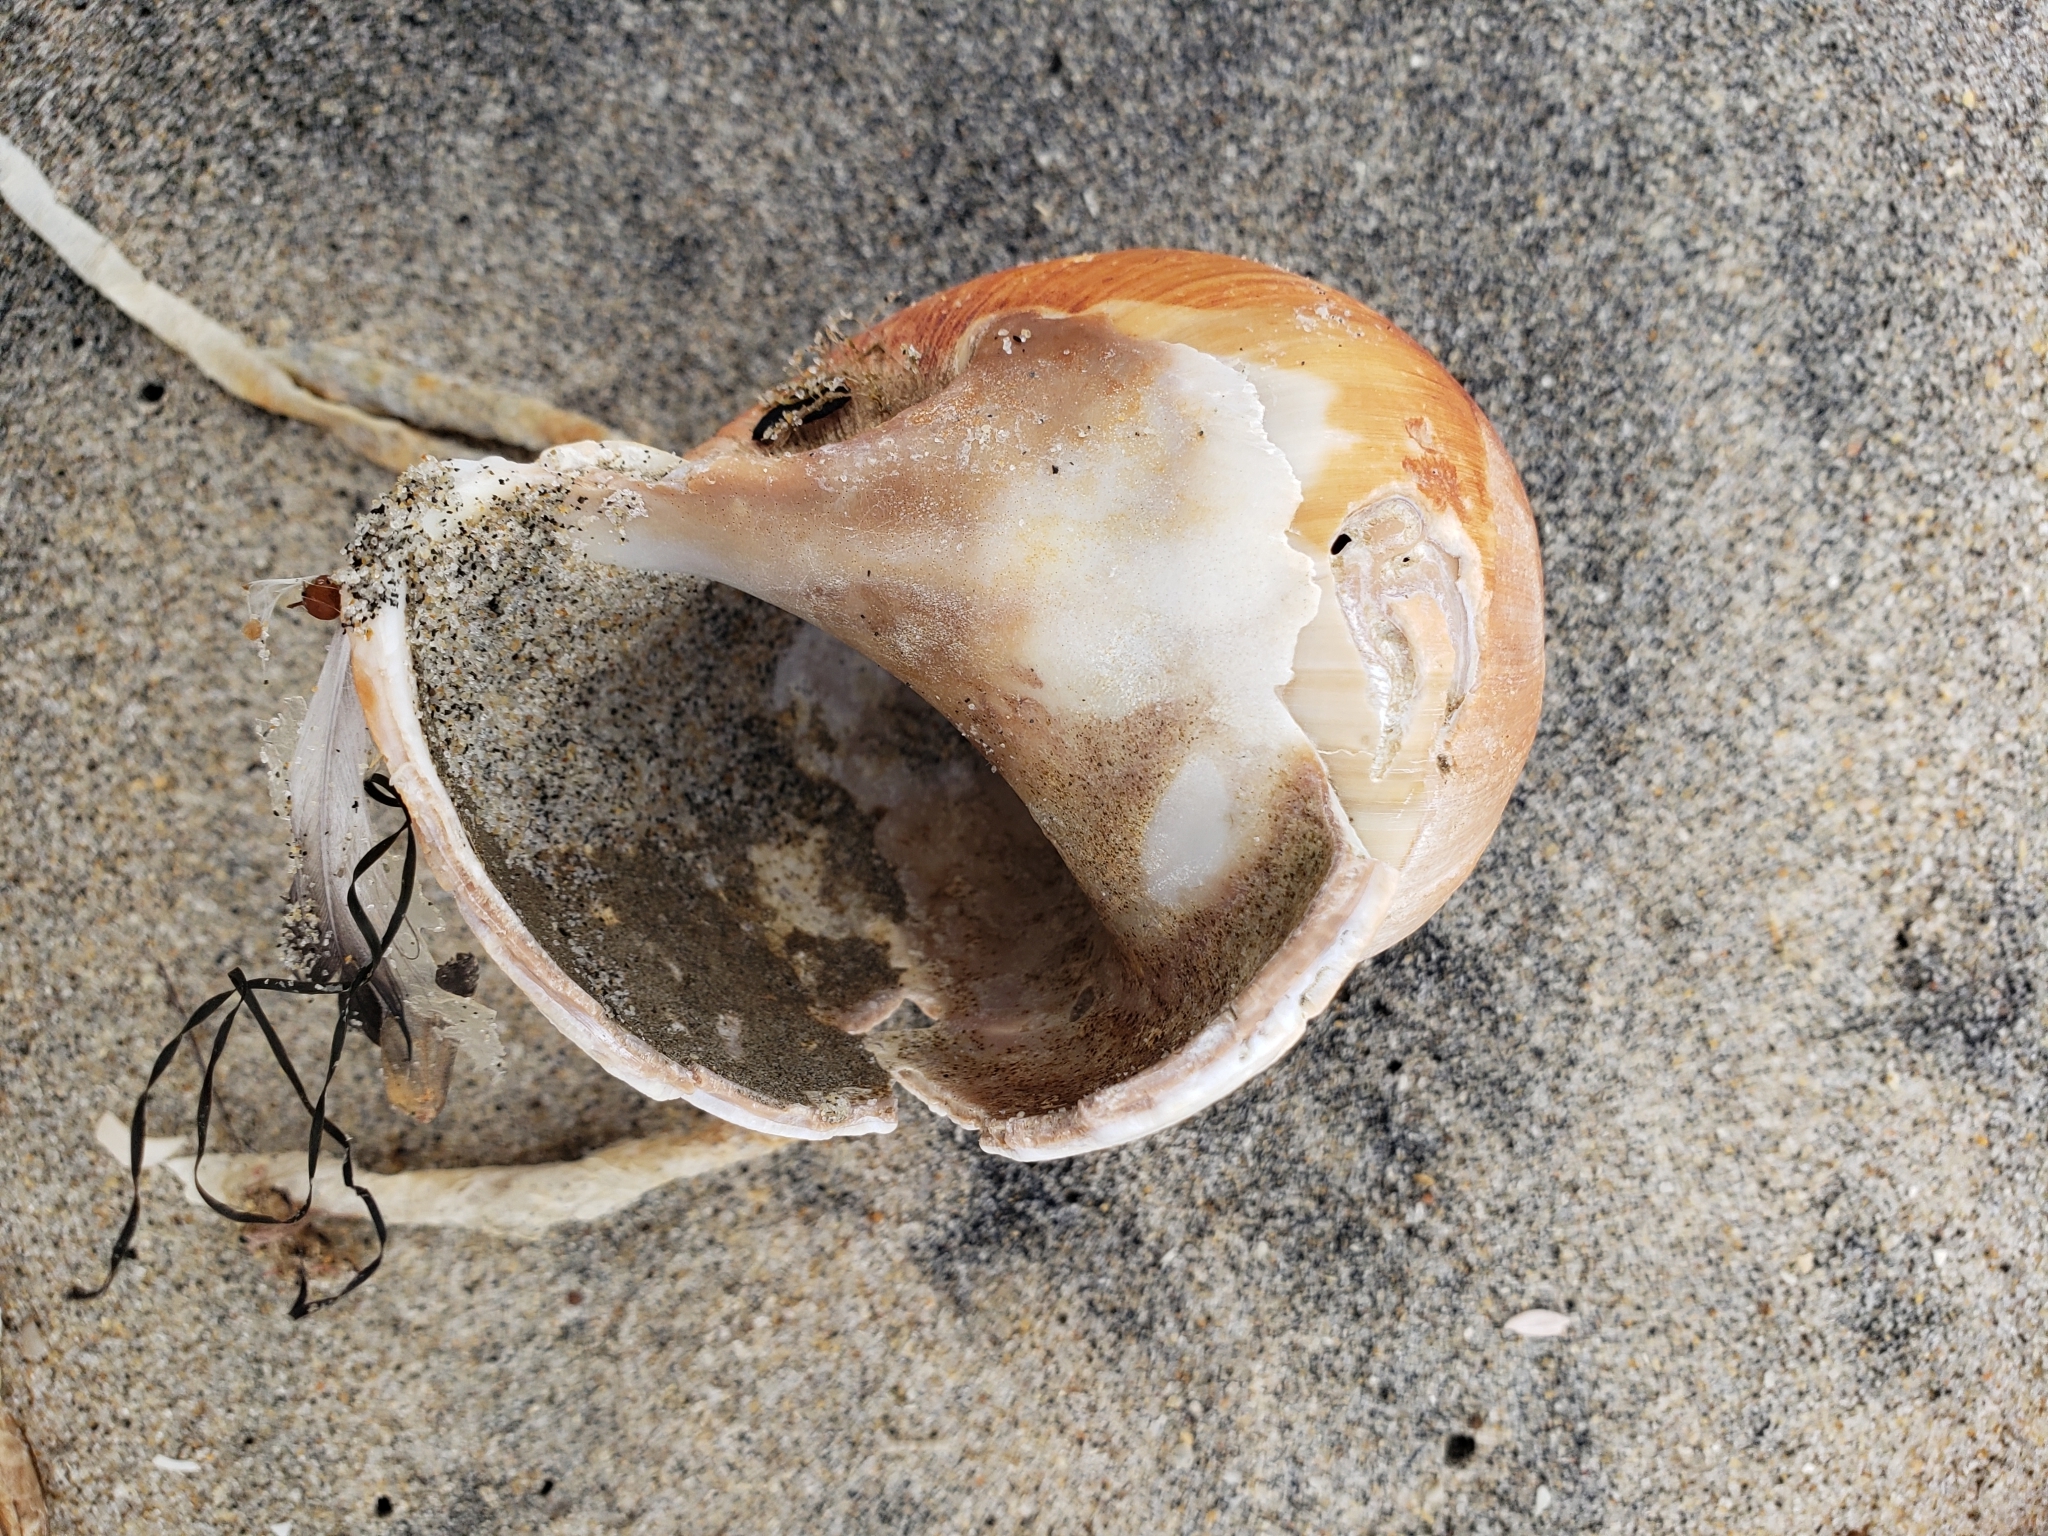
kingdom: Animalia
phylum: Mollusca
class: Gastropoda
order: Littorinimorpha
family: Naticidae
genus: Neverita
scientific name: Neverita lewisii
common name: Lewis' moonsnail
